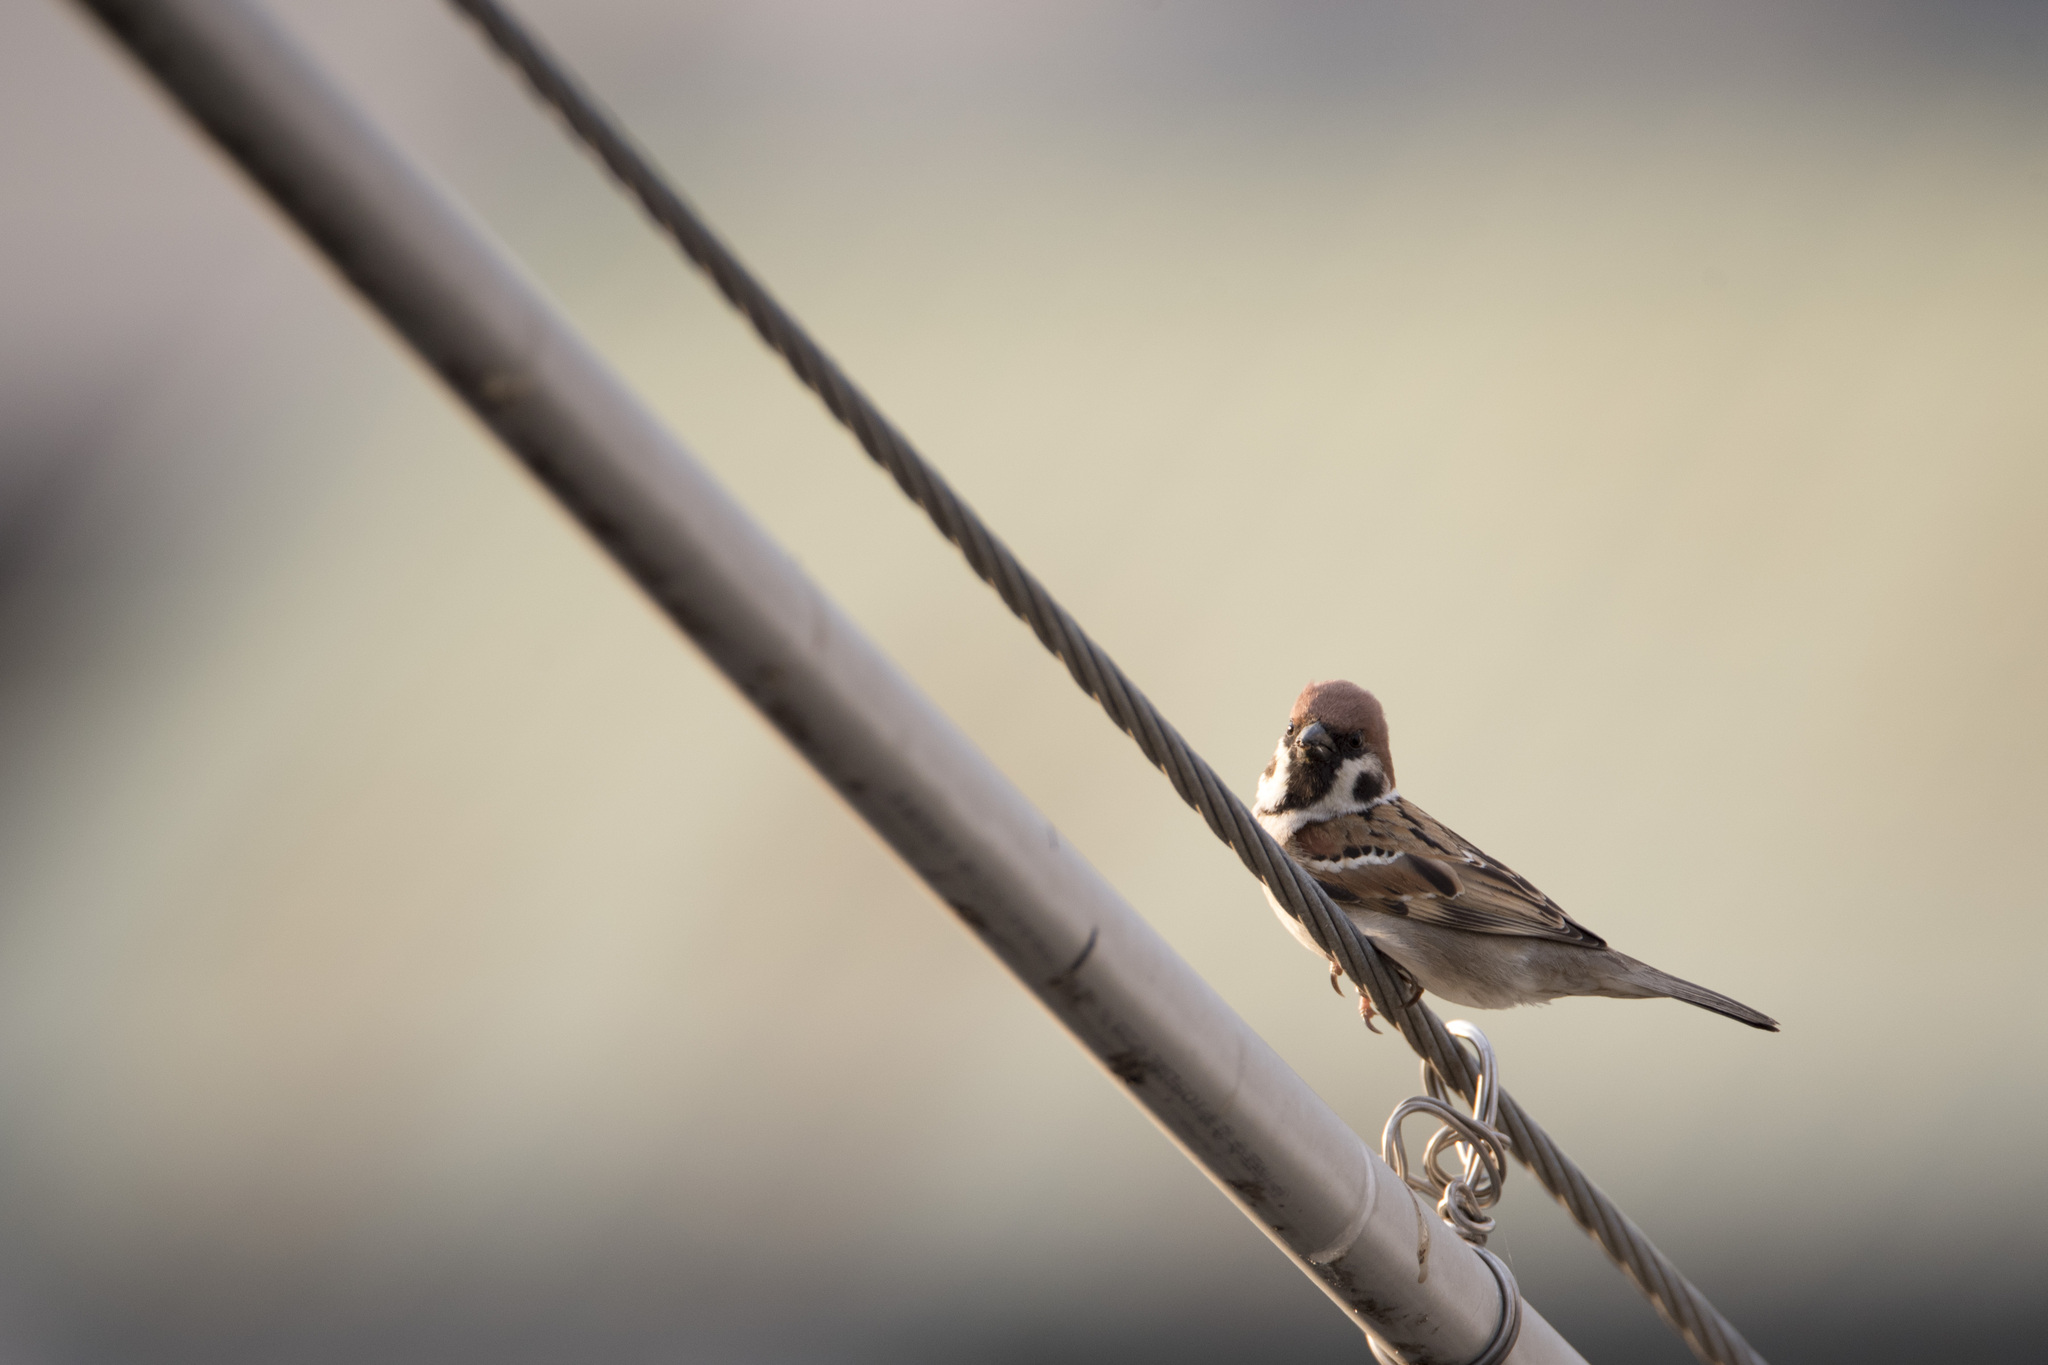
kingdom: Animalia
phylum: Chordata
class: Aves
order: Passeriformes
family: Passeridae
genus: Passer
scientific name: Passer montanus
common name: Eurasian tree sparrow
